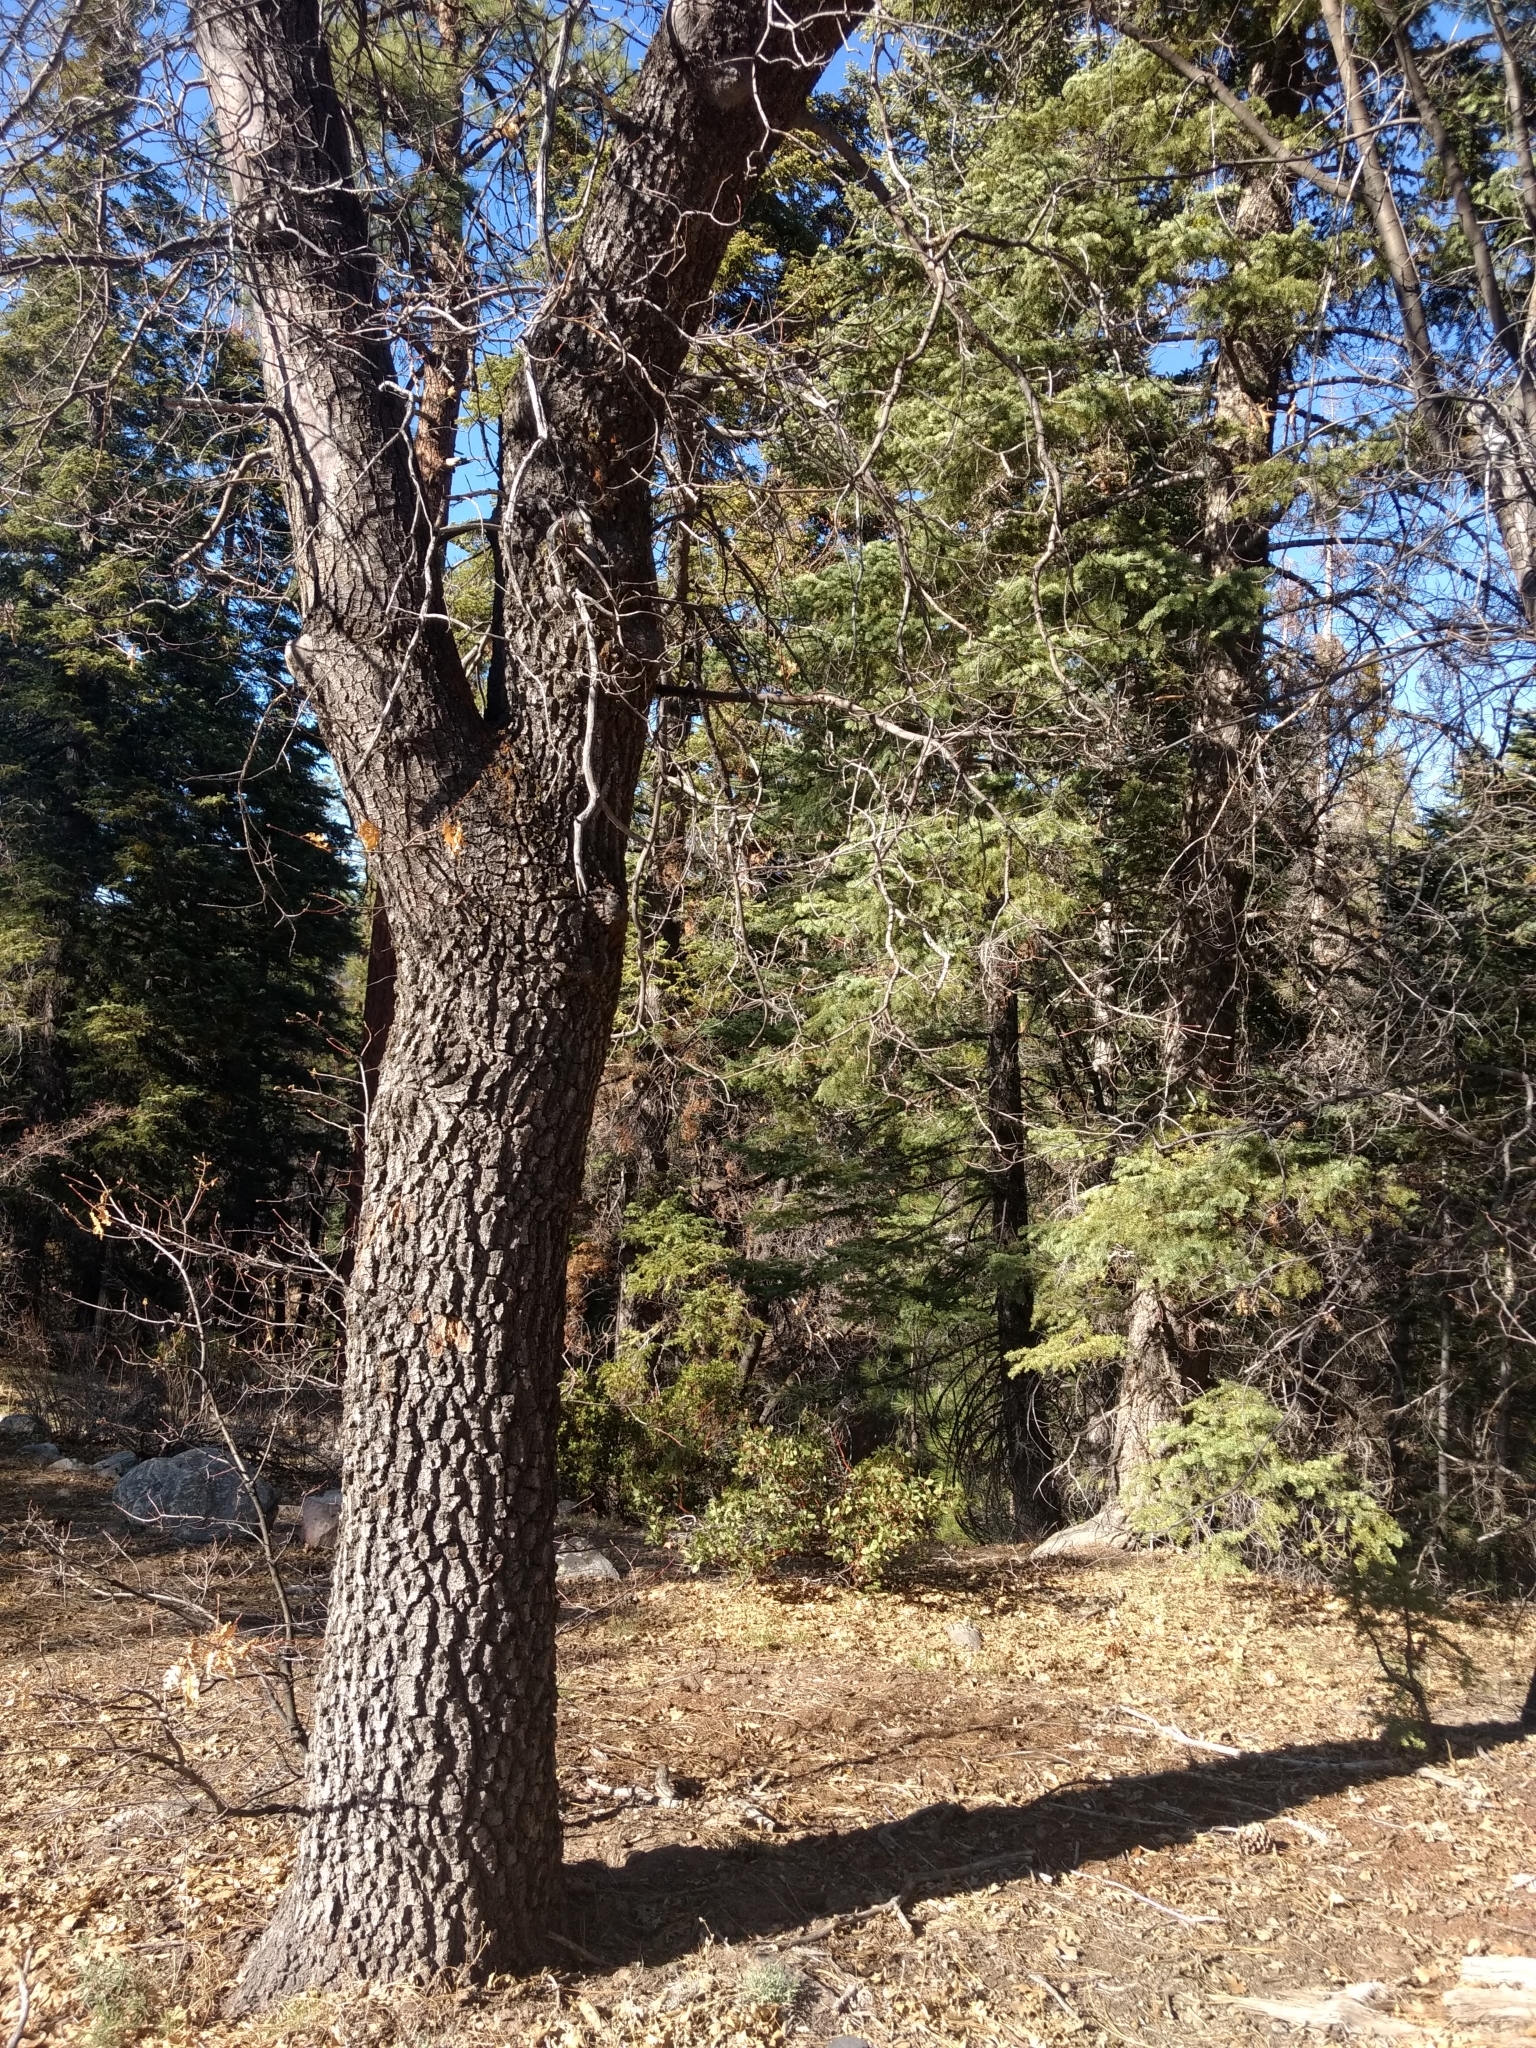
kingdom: Plantae
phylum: Tracheophyta
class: Magnoliopsida
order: Fagales
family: Fagaceae
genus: Quercus
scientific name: Quercus kelloggii
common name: California black oak
